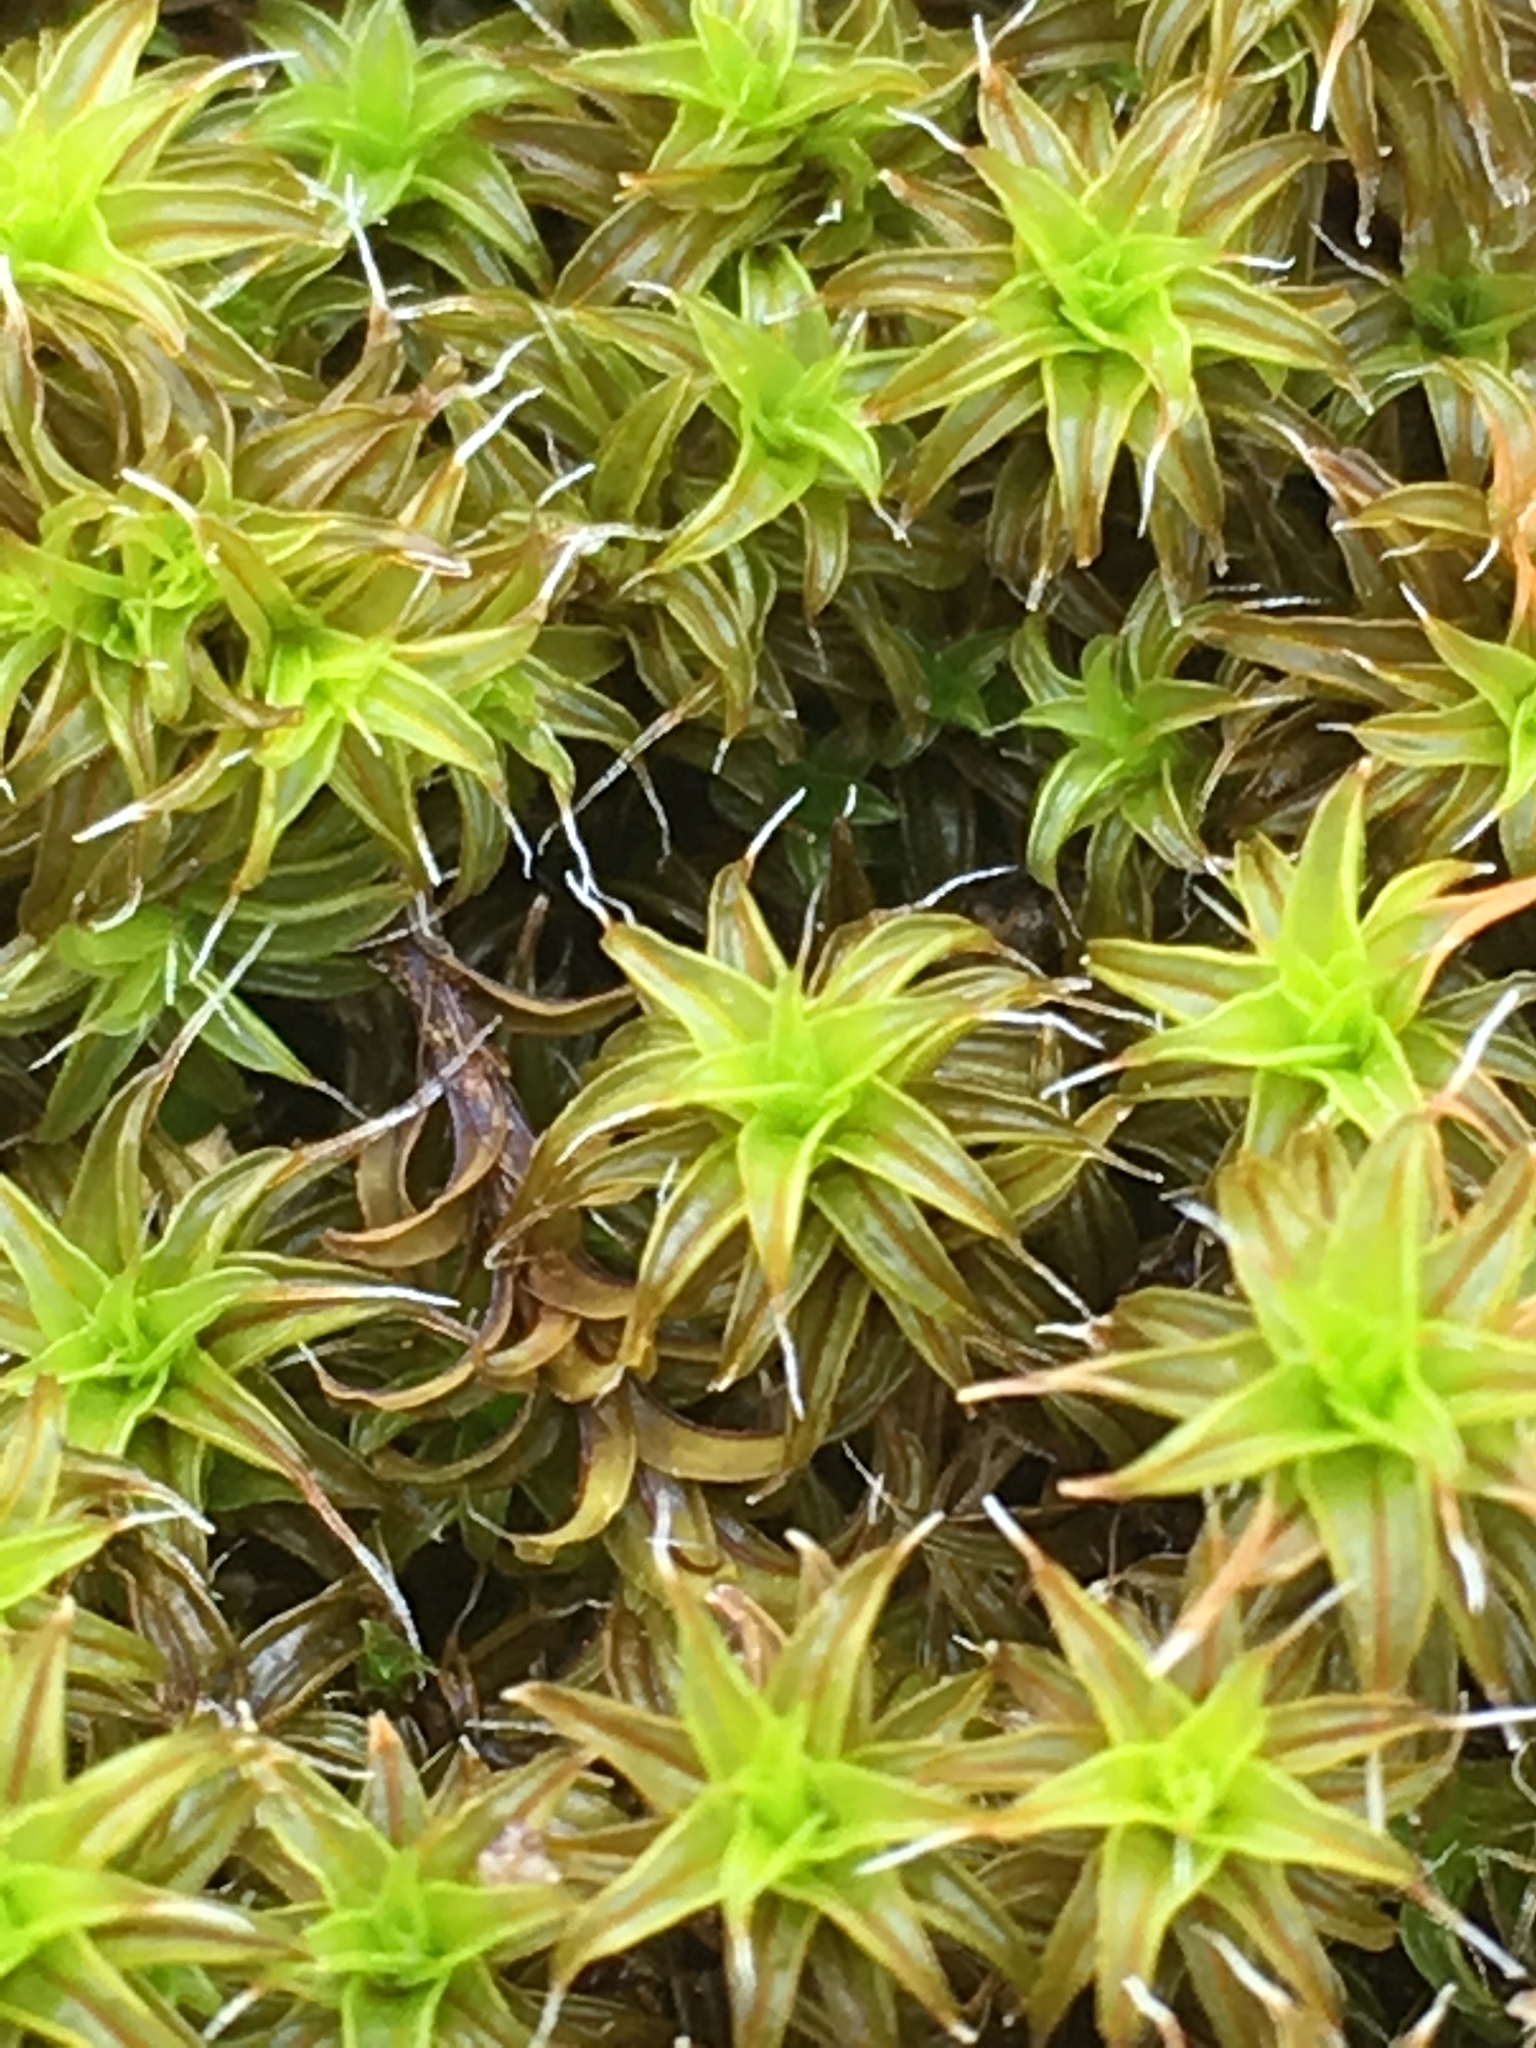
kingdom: Plantae
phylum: Bryophyta
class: Bryopsida
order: Pottiales
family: Pottiaceae
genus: Syntrichia
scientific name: Syntrichia ruralis
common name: Sidewalk screw moss
